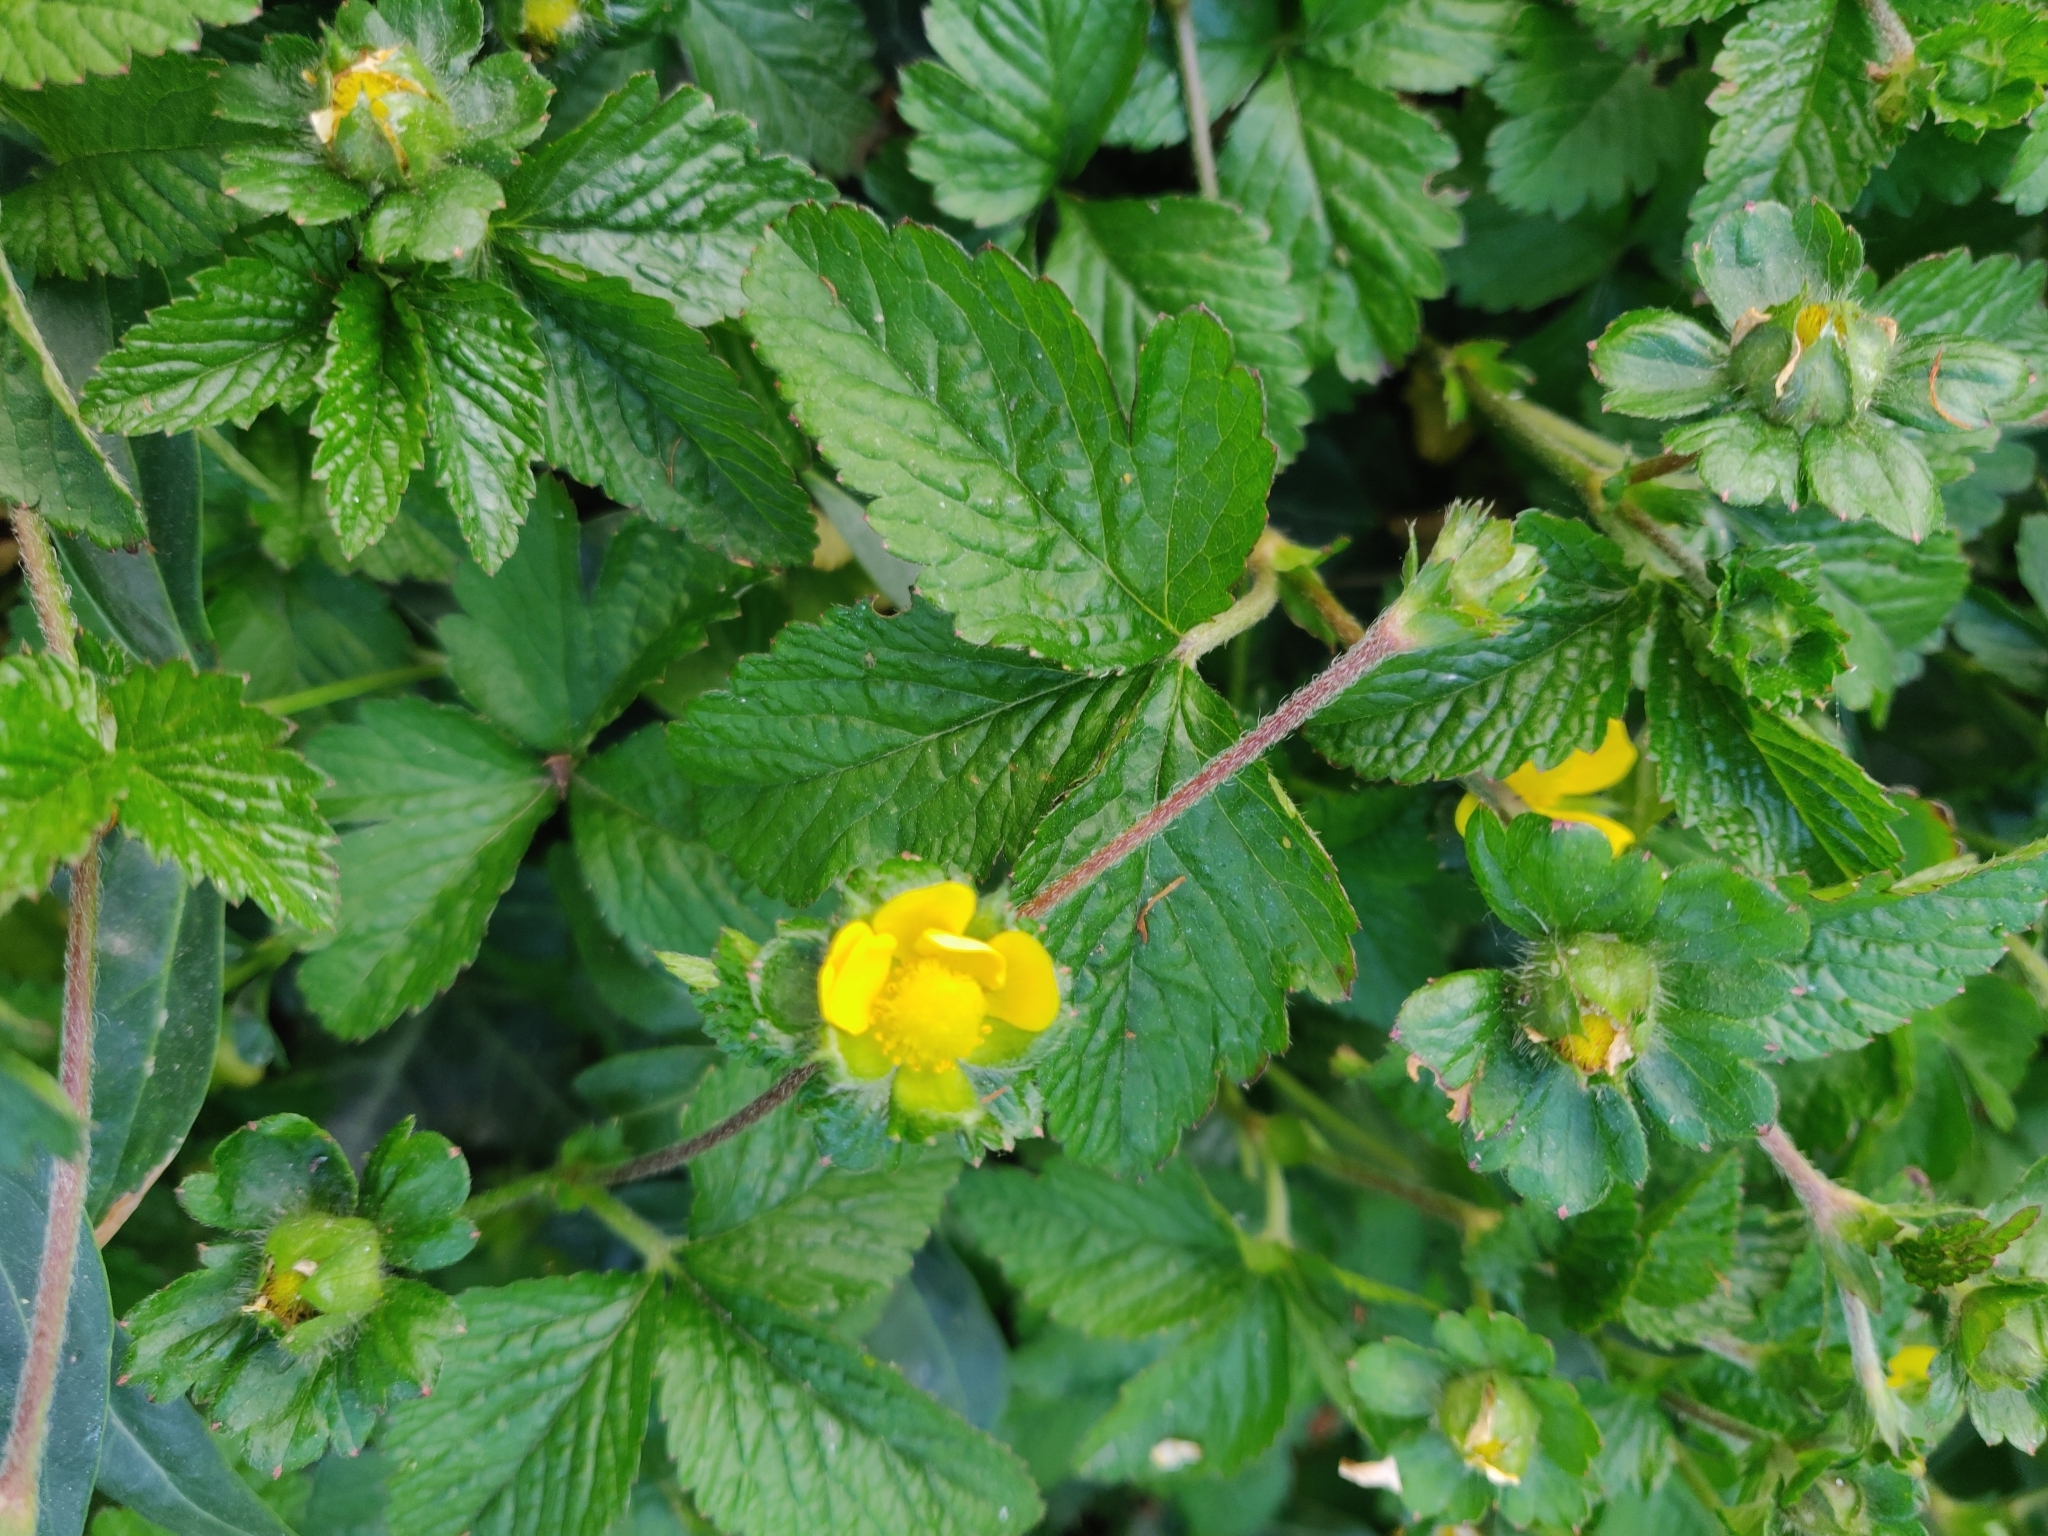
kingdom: Plantae
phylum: Tracheophyta
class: Magnoliopsida
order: Rosales
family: Rosaceae
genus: Potentilla
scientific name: Potentilla indica
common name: Yellow-flowered strawberry
